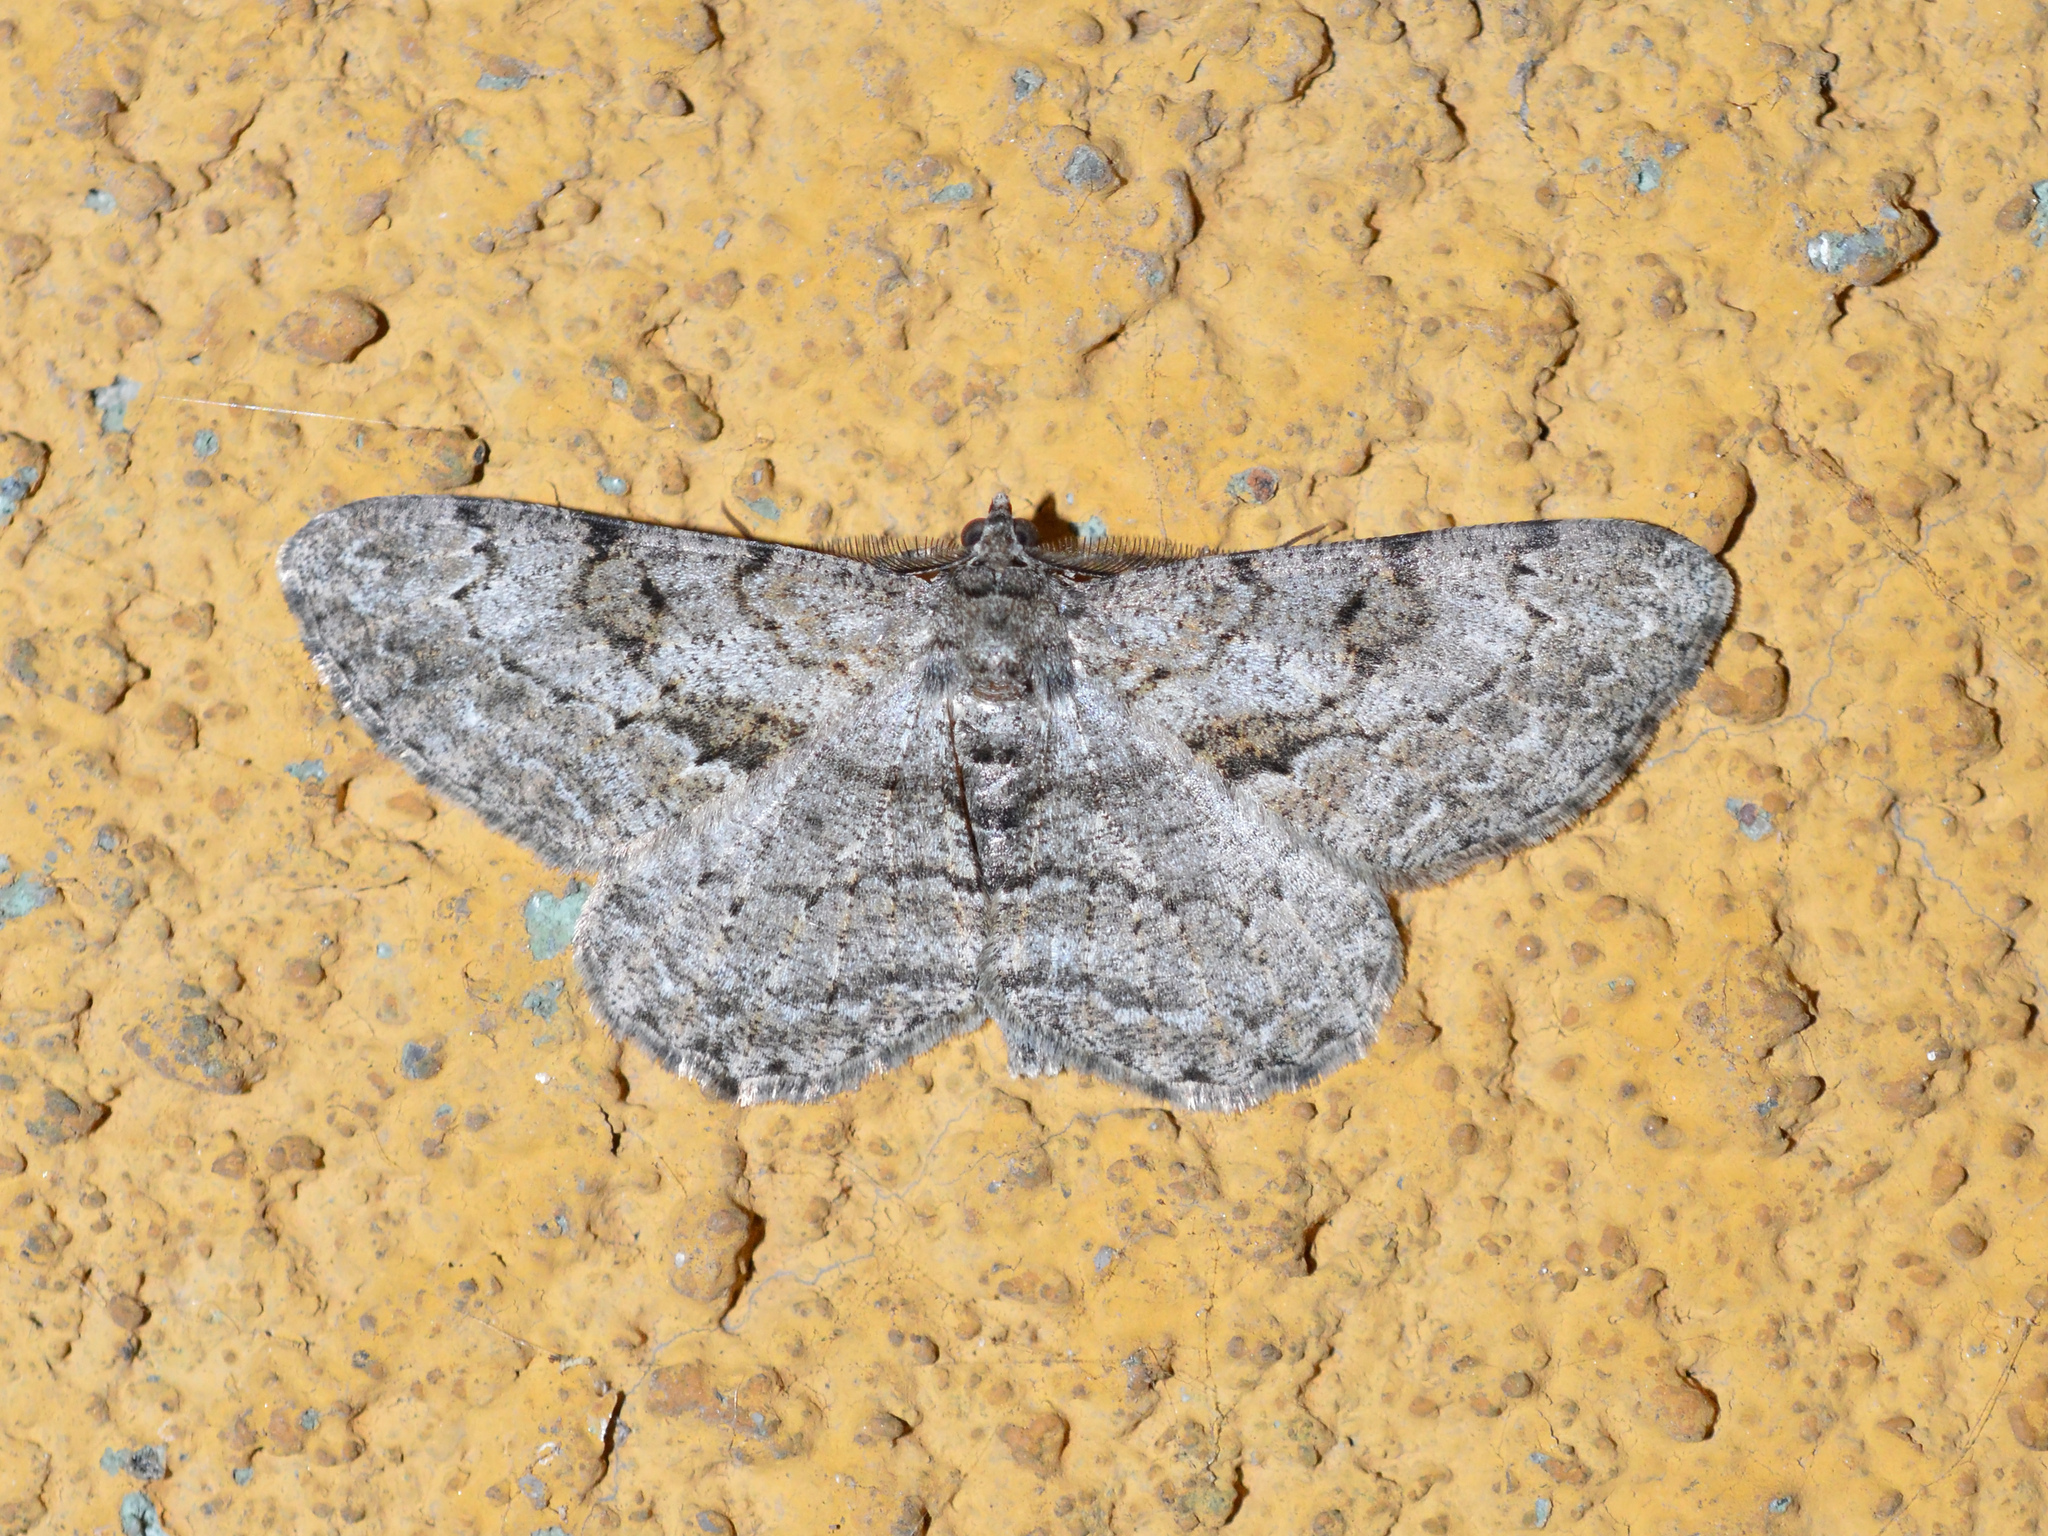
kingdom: Animalia
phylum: Arthropoda
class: Insecta
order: Lepidoptera
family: Geometridae
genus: Peribatodes
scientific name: Peribatodes rhomboidaria
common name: Willow beauty
